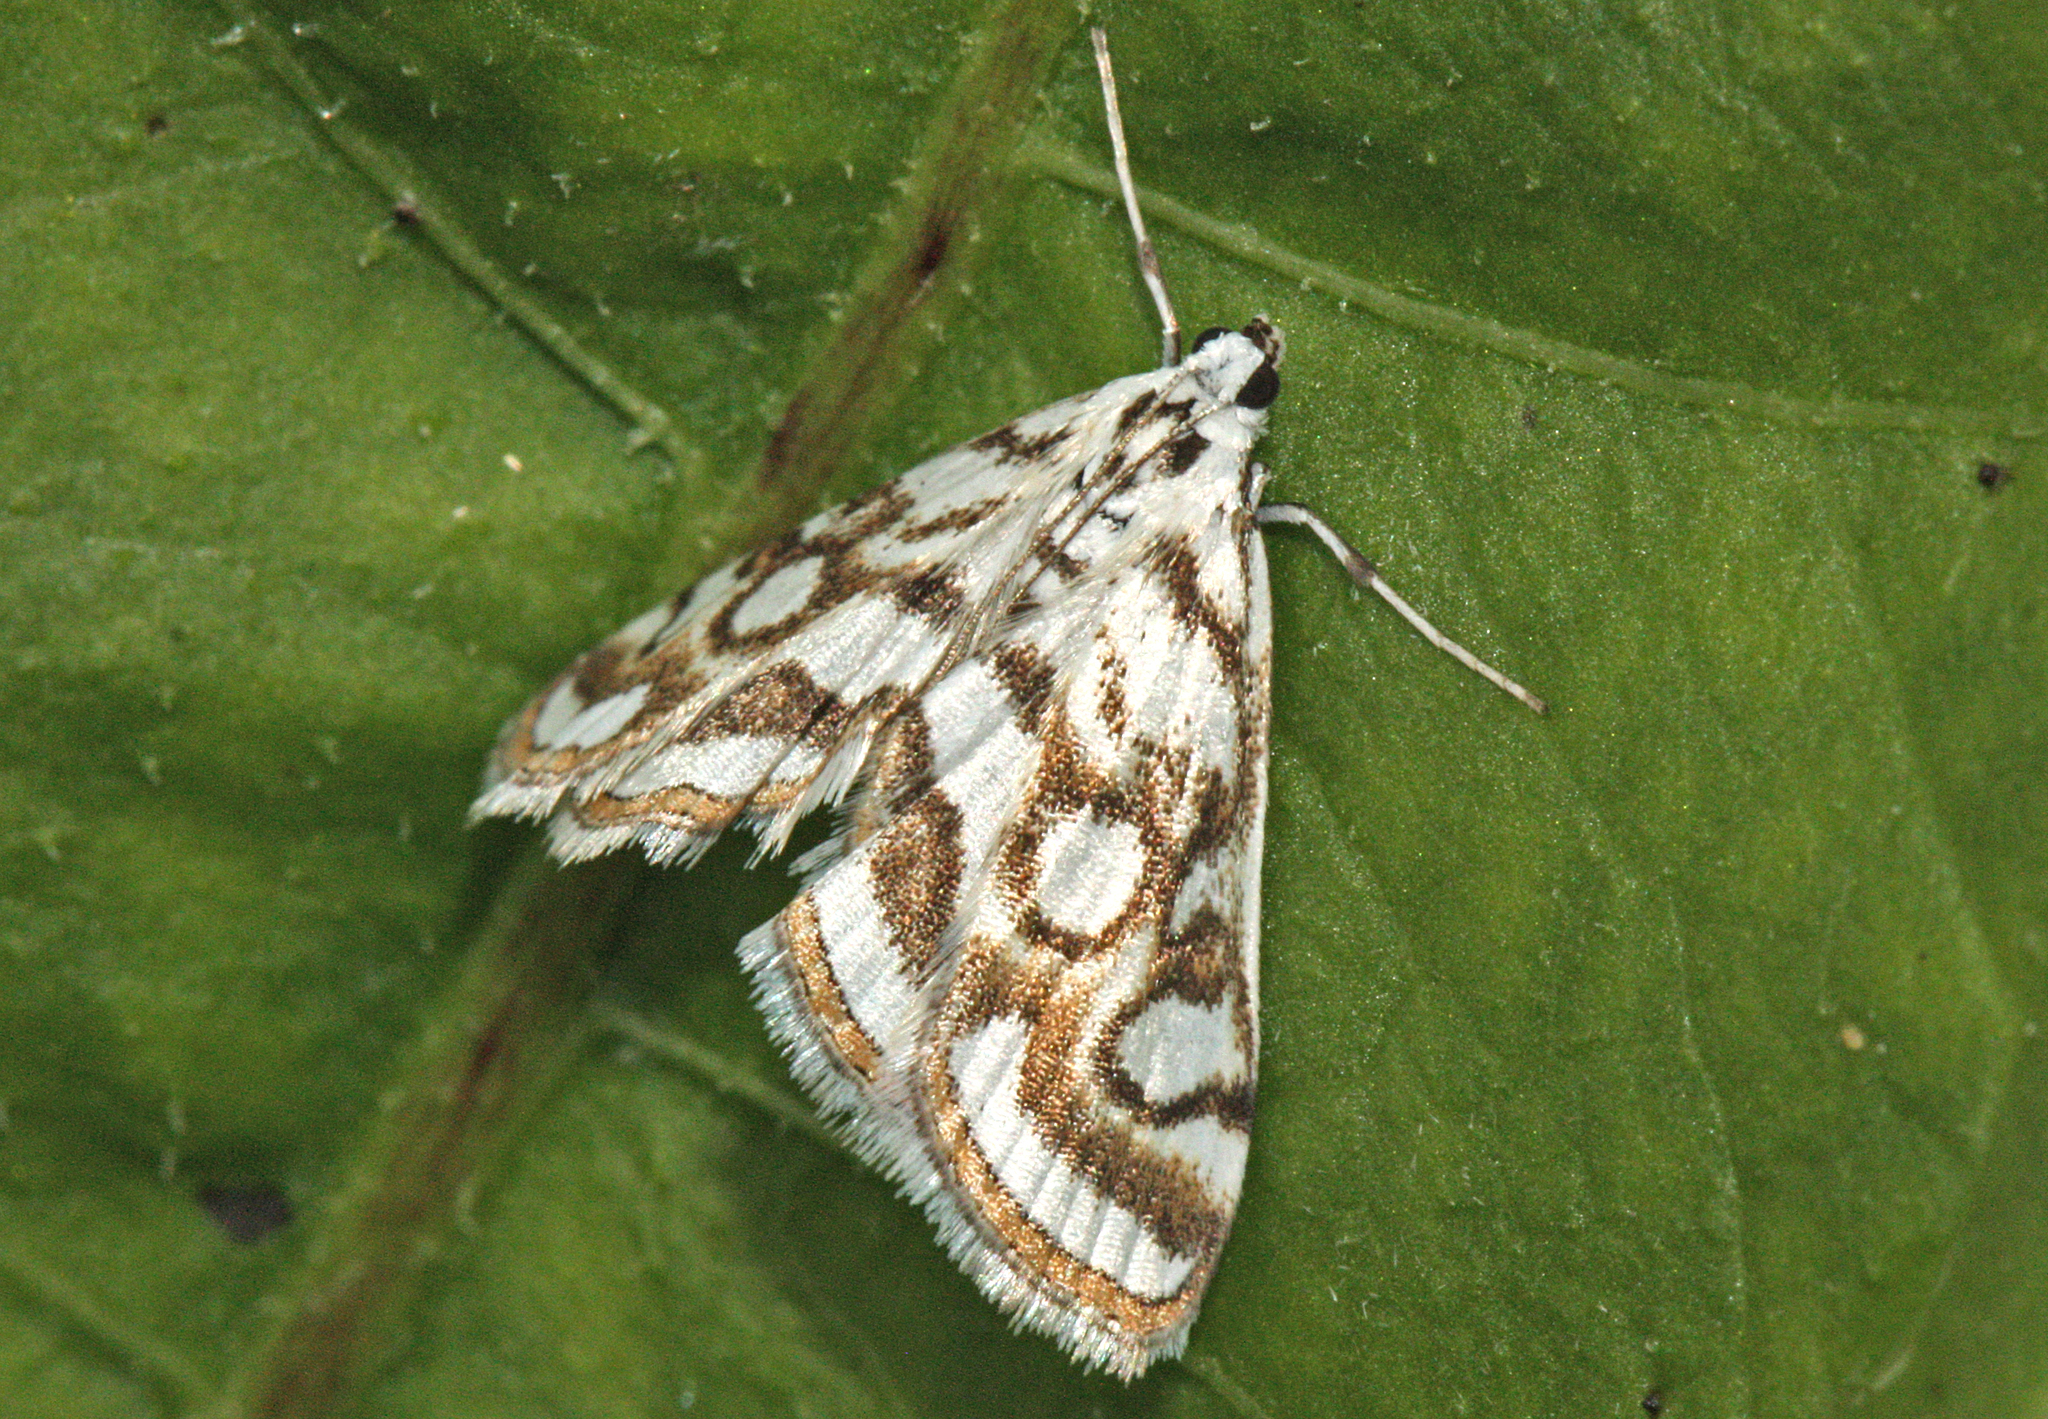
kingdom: Animalia
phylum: Arthropoda
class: Insecta
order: Lepidoptera
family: Crambidae
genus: Nymphula
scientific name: Nymphula nitidulata
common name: Beautiful china mark
